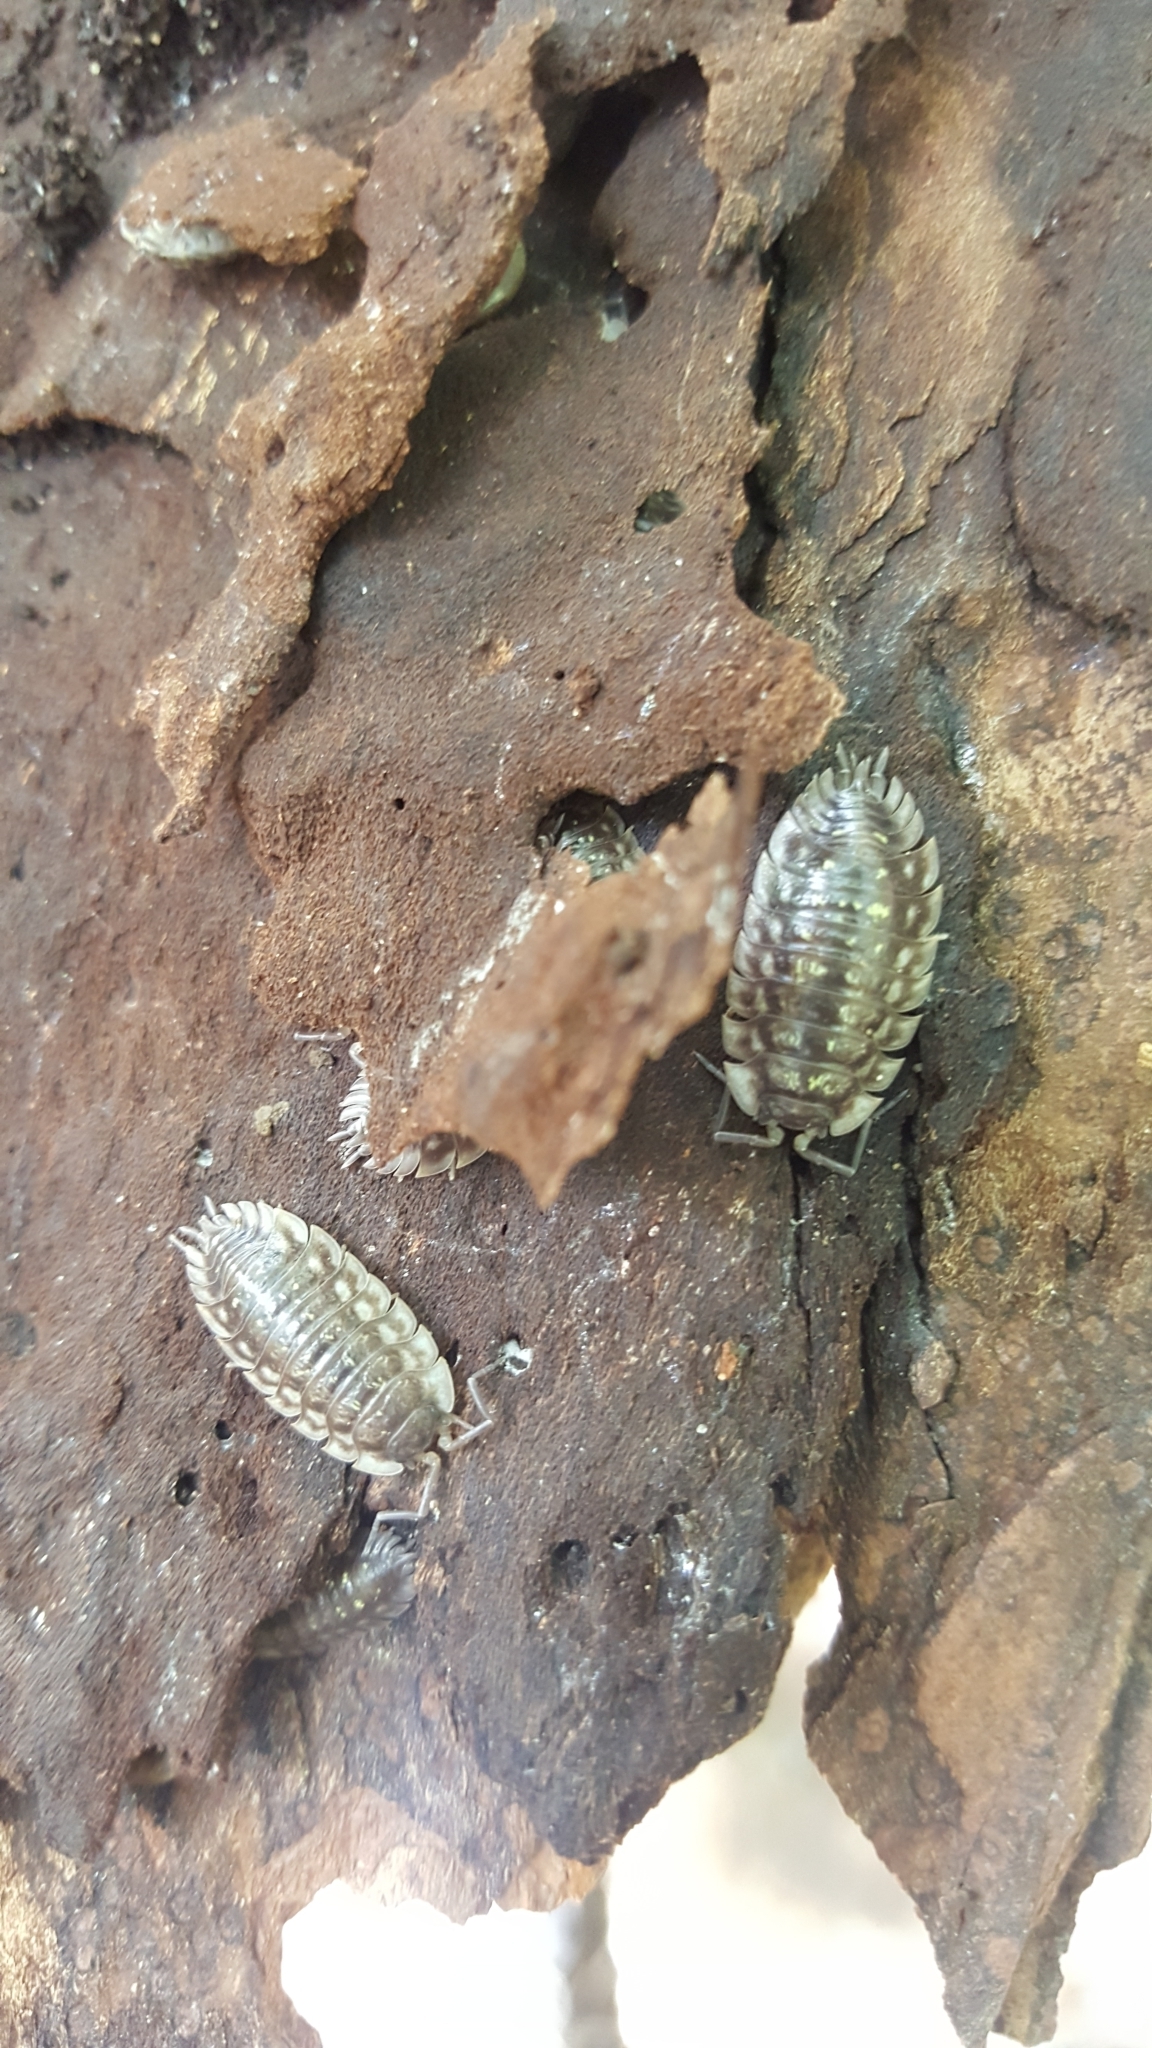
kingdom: Animalia
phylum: Arthropoda
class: Malacostraca
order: Isopoda
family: Oniscidae
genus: Oniscus
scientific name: Oniscus asellus
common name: Common shiny woodlouse
